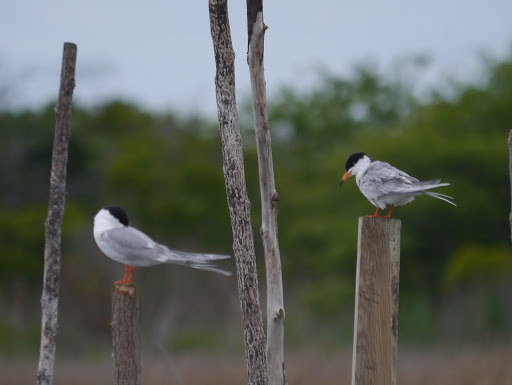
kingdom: Animalia
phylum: Chordata
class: Aves
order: Charadriiformes
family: Laridae
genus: Sterna
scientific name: Sterna forsteri
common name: Forster's tern
